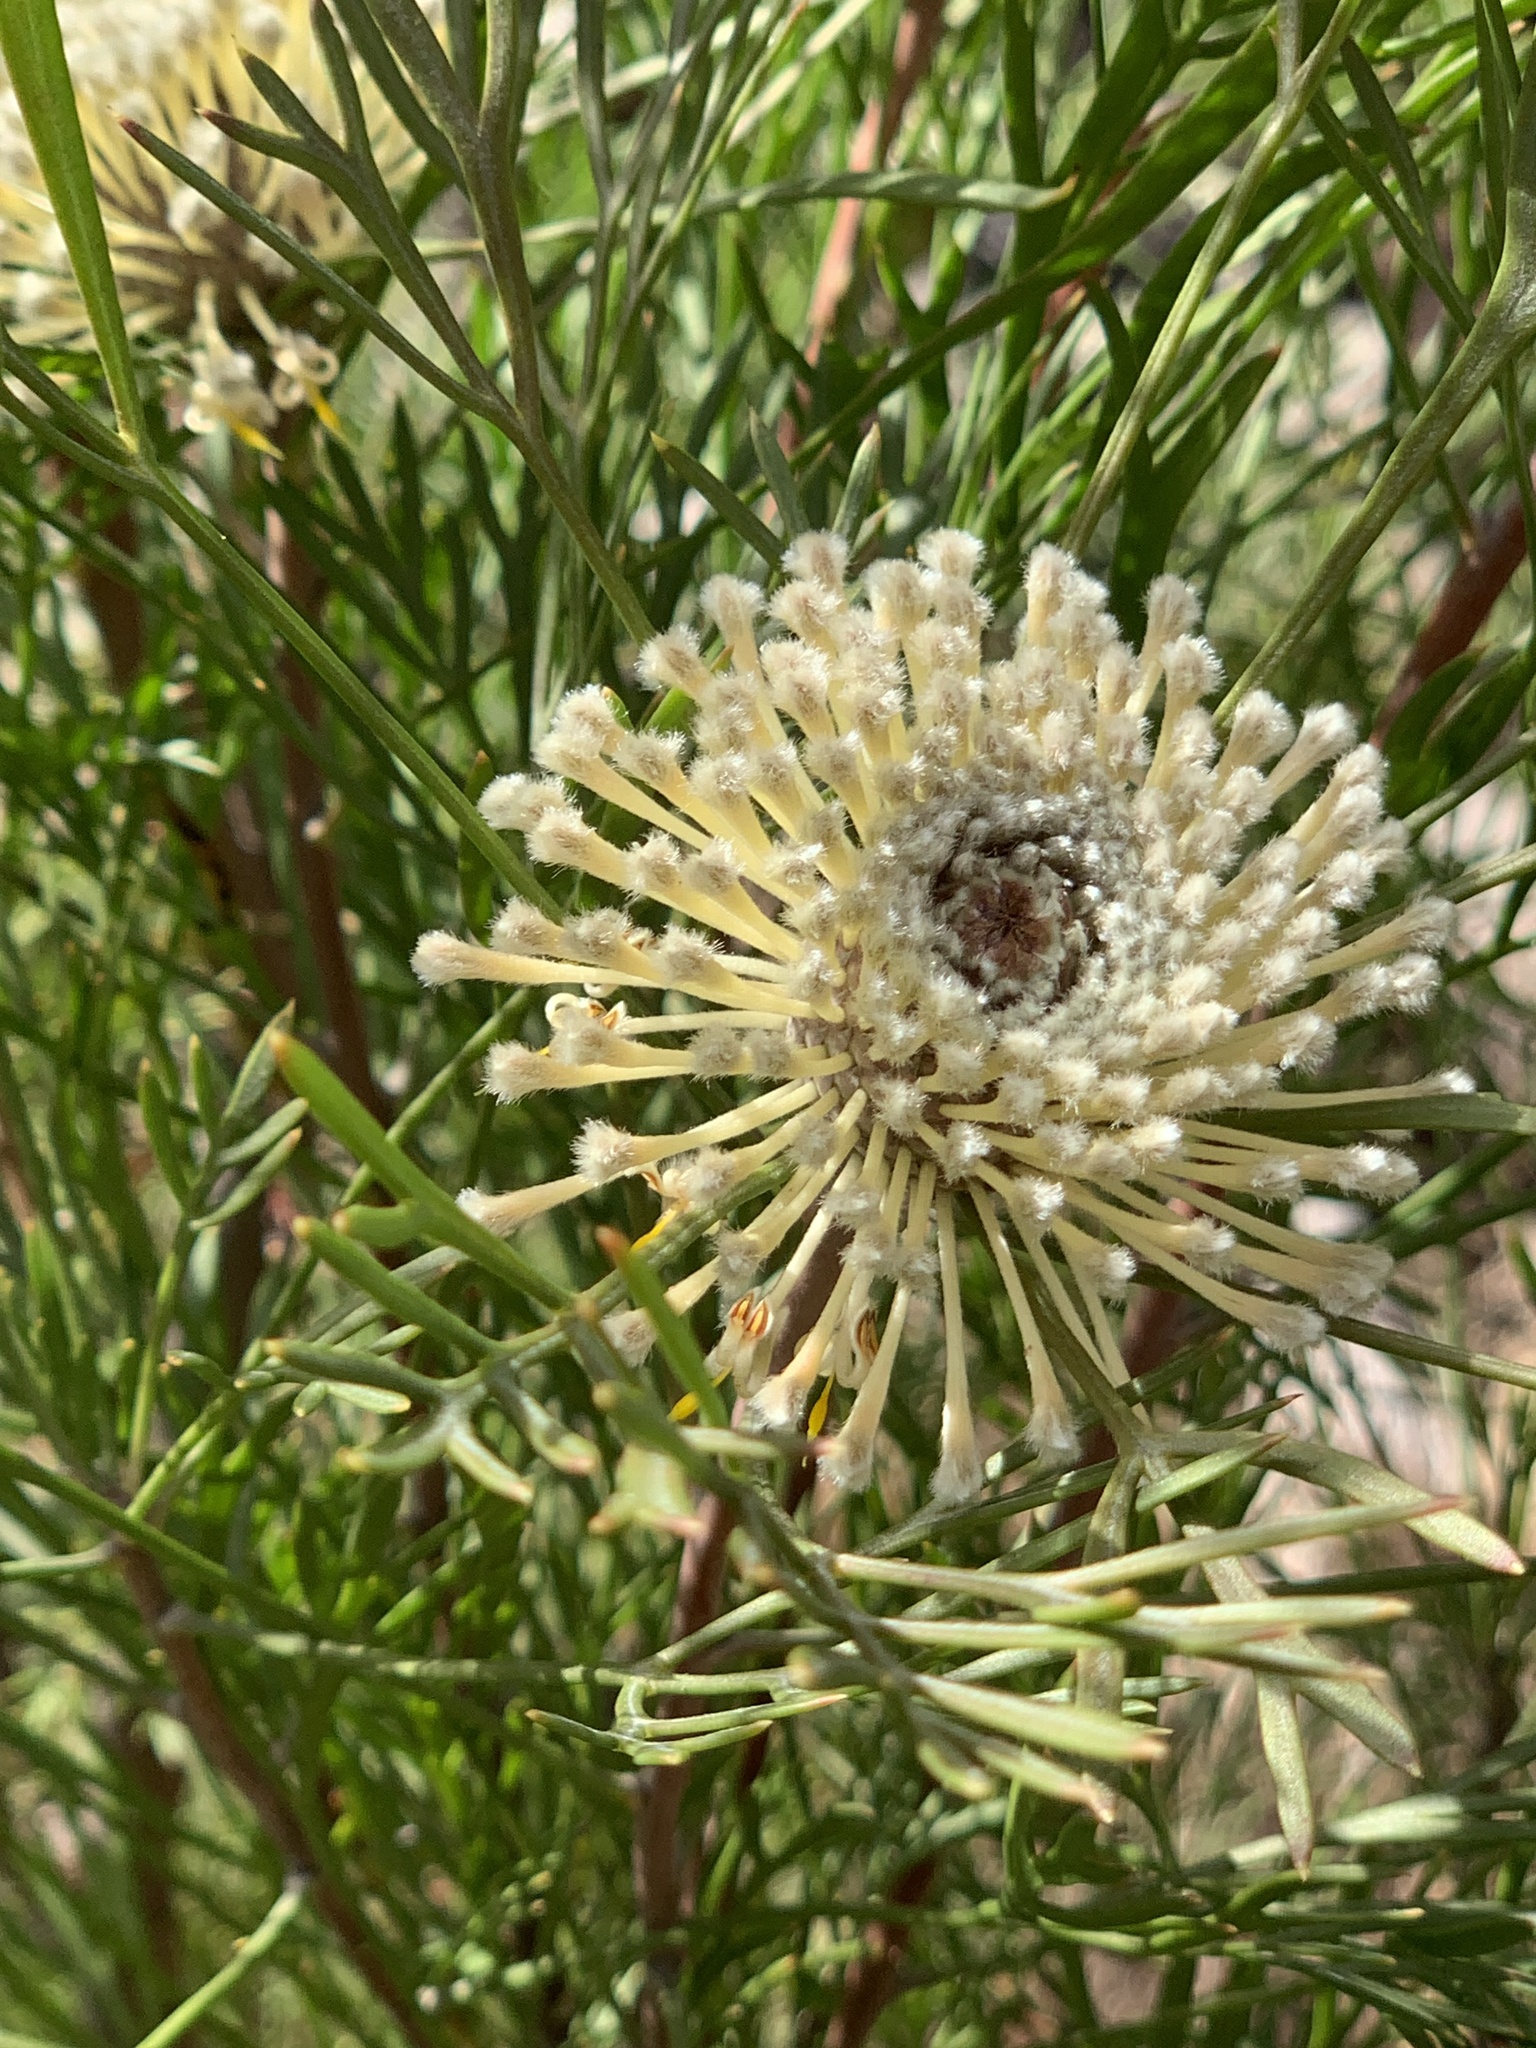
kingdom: Plantae
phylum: Tracheophyta
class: Magnoliopsida
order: Proteales
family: Proteaceae
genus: Isopogon
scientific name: Isopogon anemonifolius
